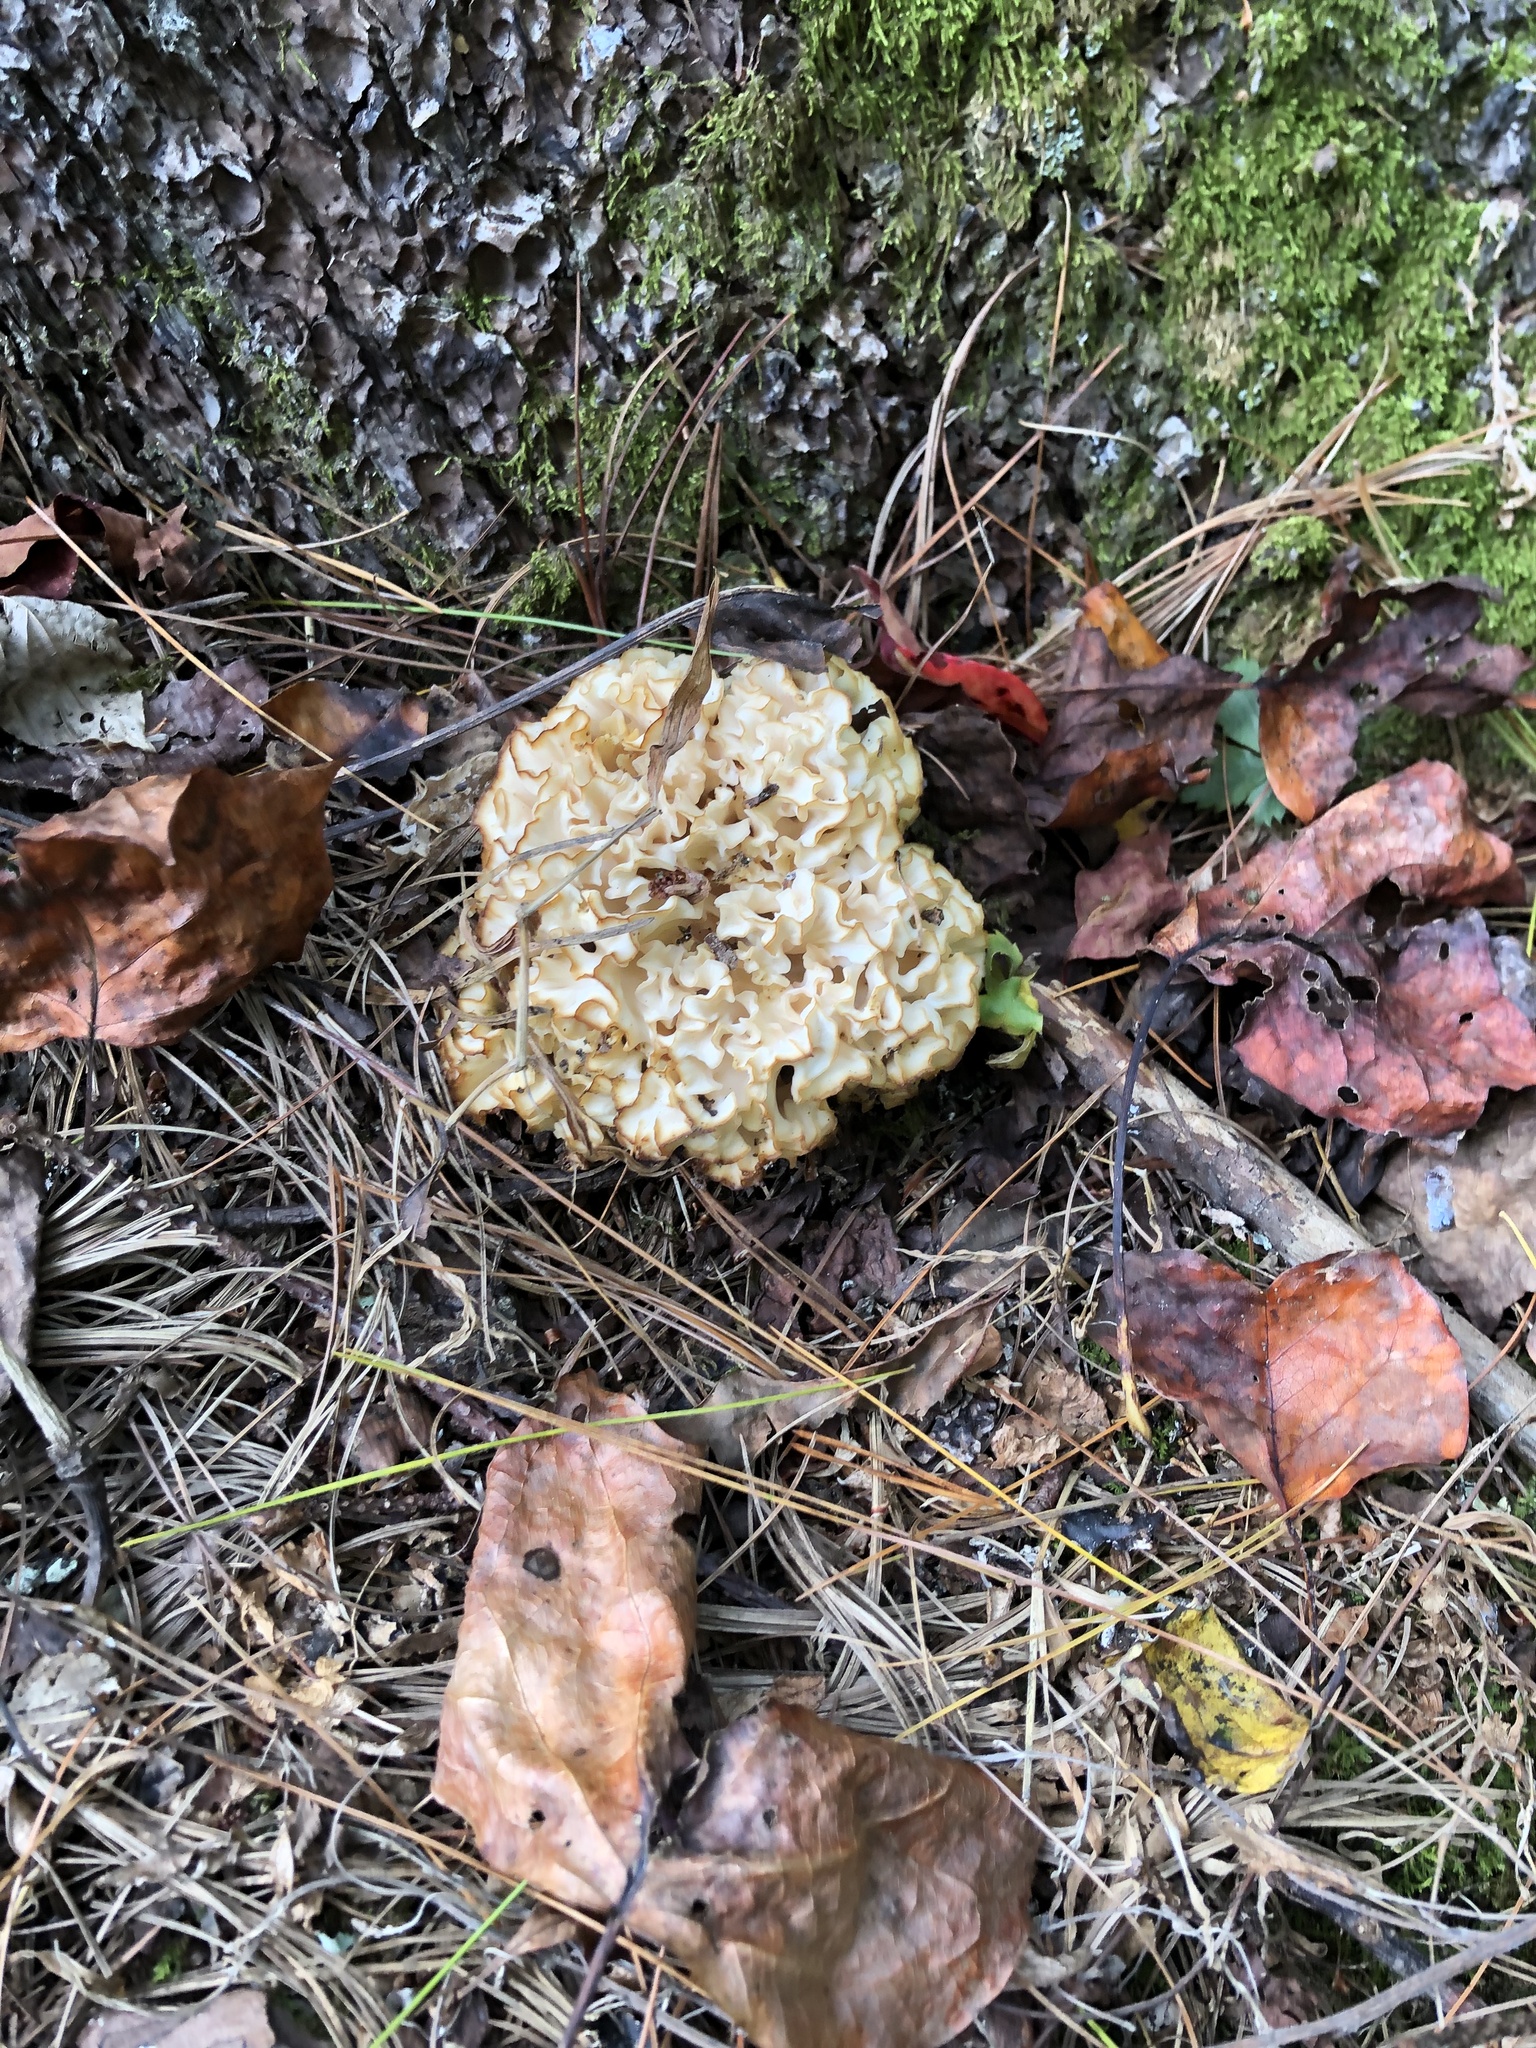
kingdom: Fungi
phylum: Basidiomycota
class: Agaricomycetes
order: Polyporales
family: Sparassidaceae
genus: Sparassis
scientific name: Sparassis americana
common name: American cauliflower mushroom
